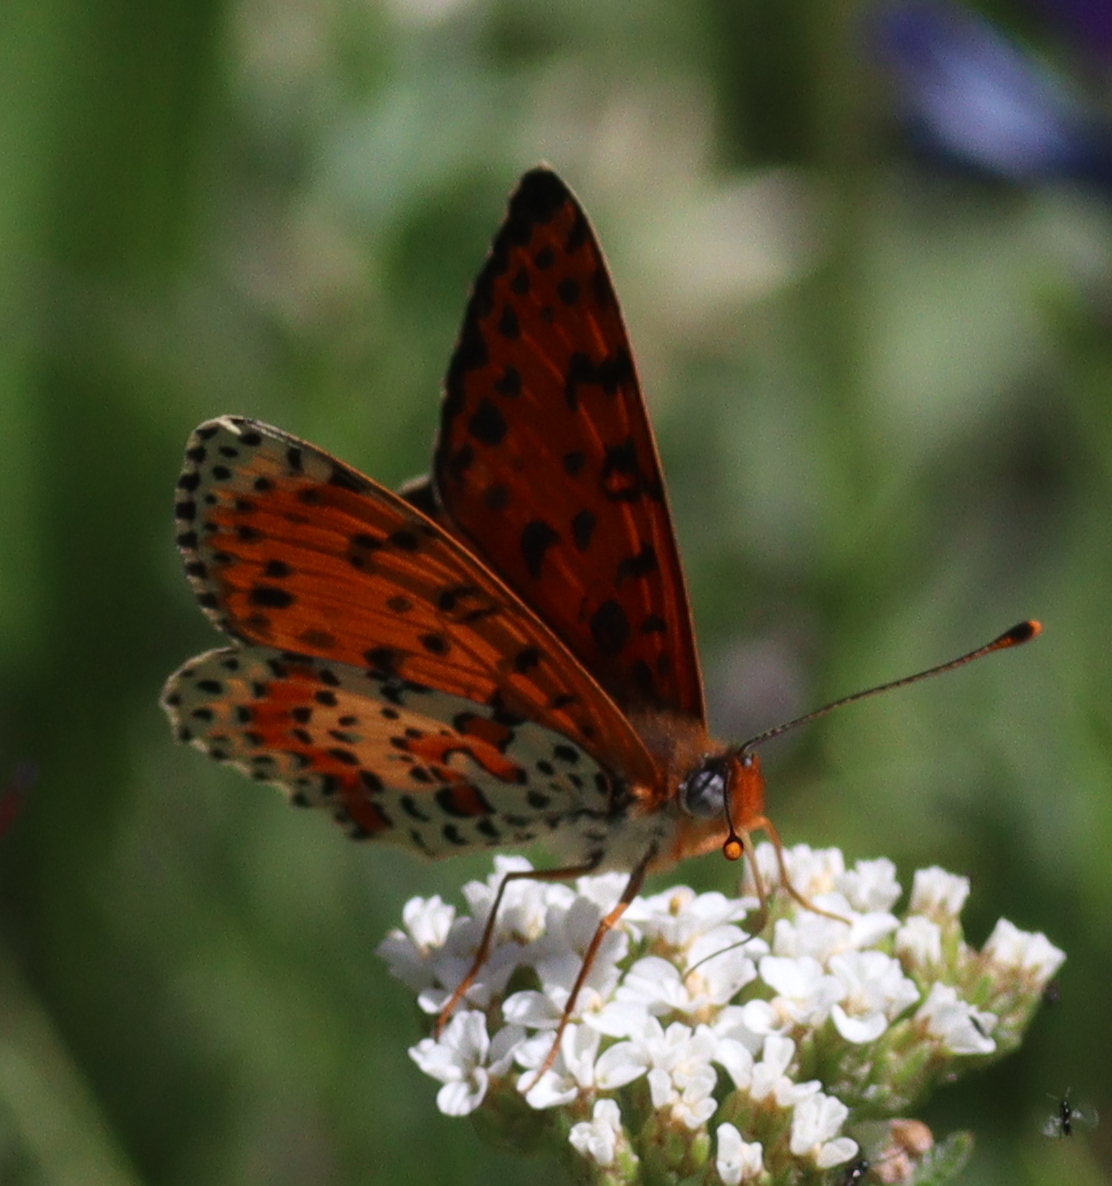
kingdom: Animalia
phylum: Arthropoda
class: Insecta
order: Lepidoptera
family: Nymphalidae
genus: Melitaea
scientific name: Melitaea didyma
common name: Spotted fritillary
